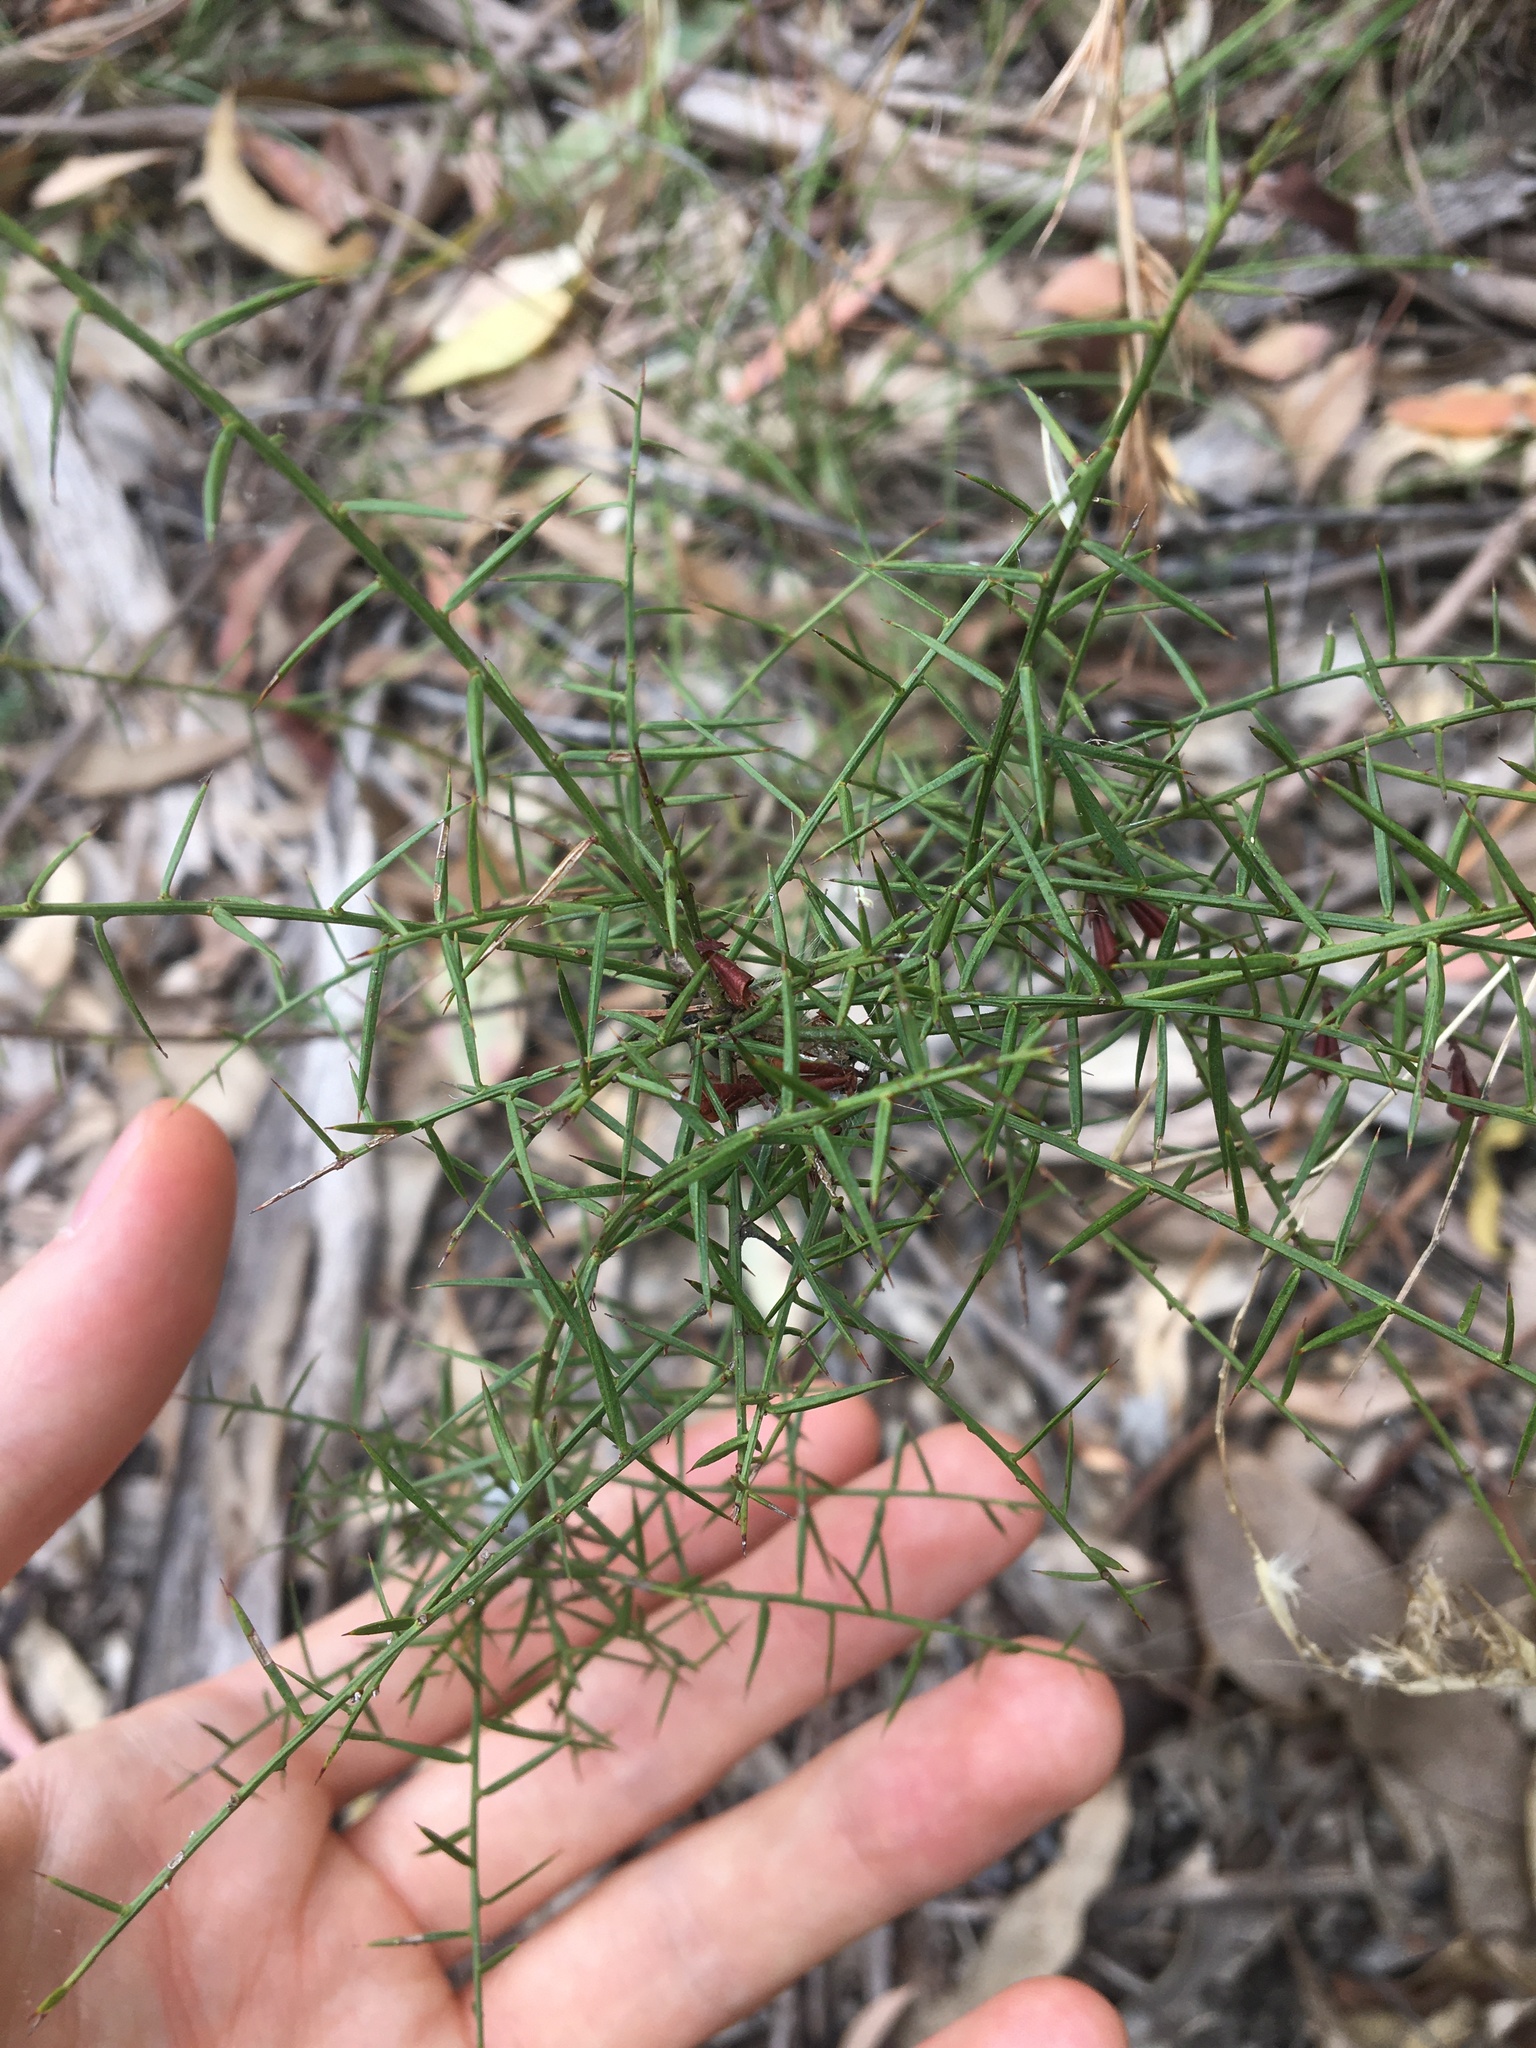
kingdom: Plantae
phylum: Tracheophyta
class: Magnoliopsida
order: Fabales
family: Fabaceae
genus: Daviesia
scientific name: Daviesia ulicifolia
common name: Gorse bitter-pea
